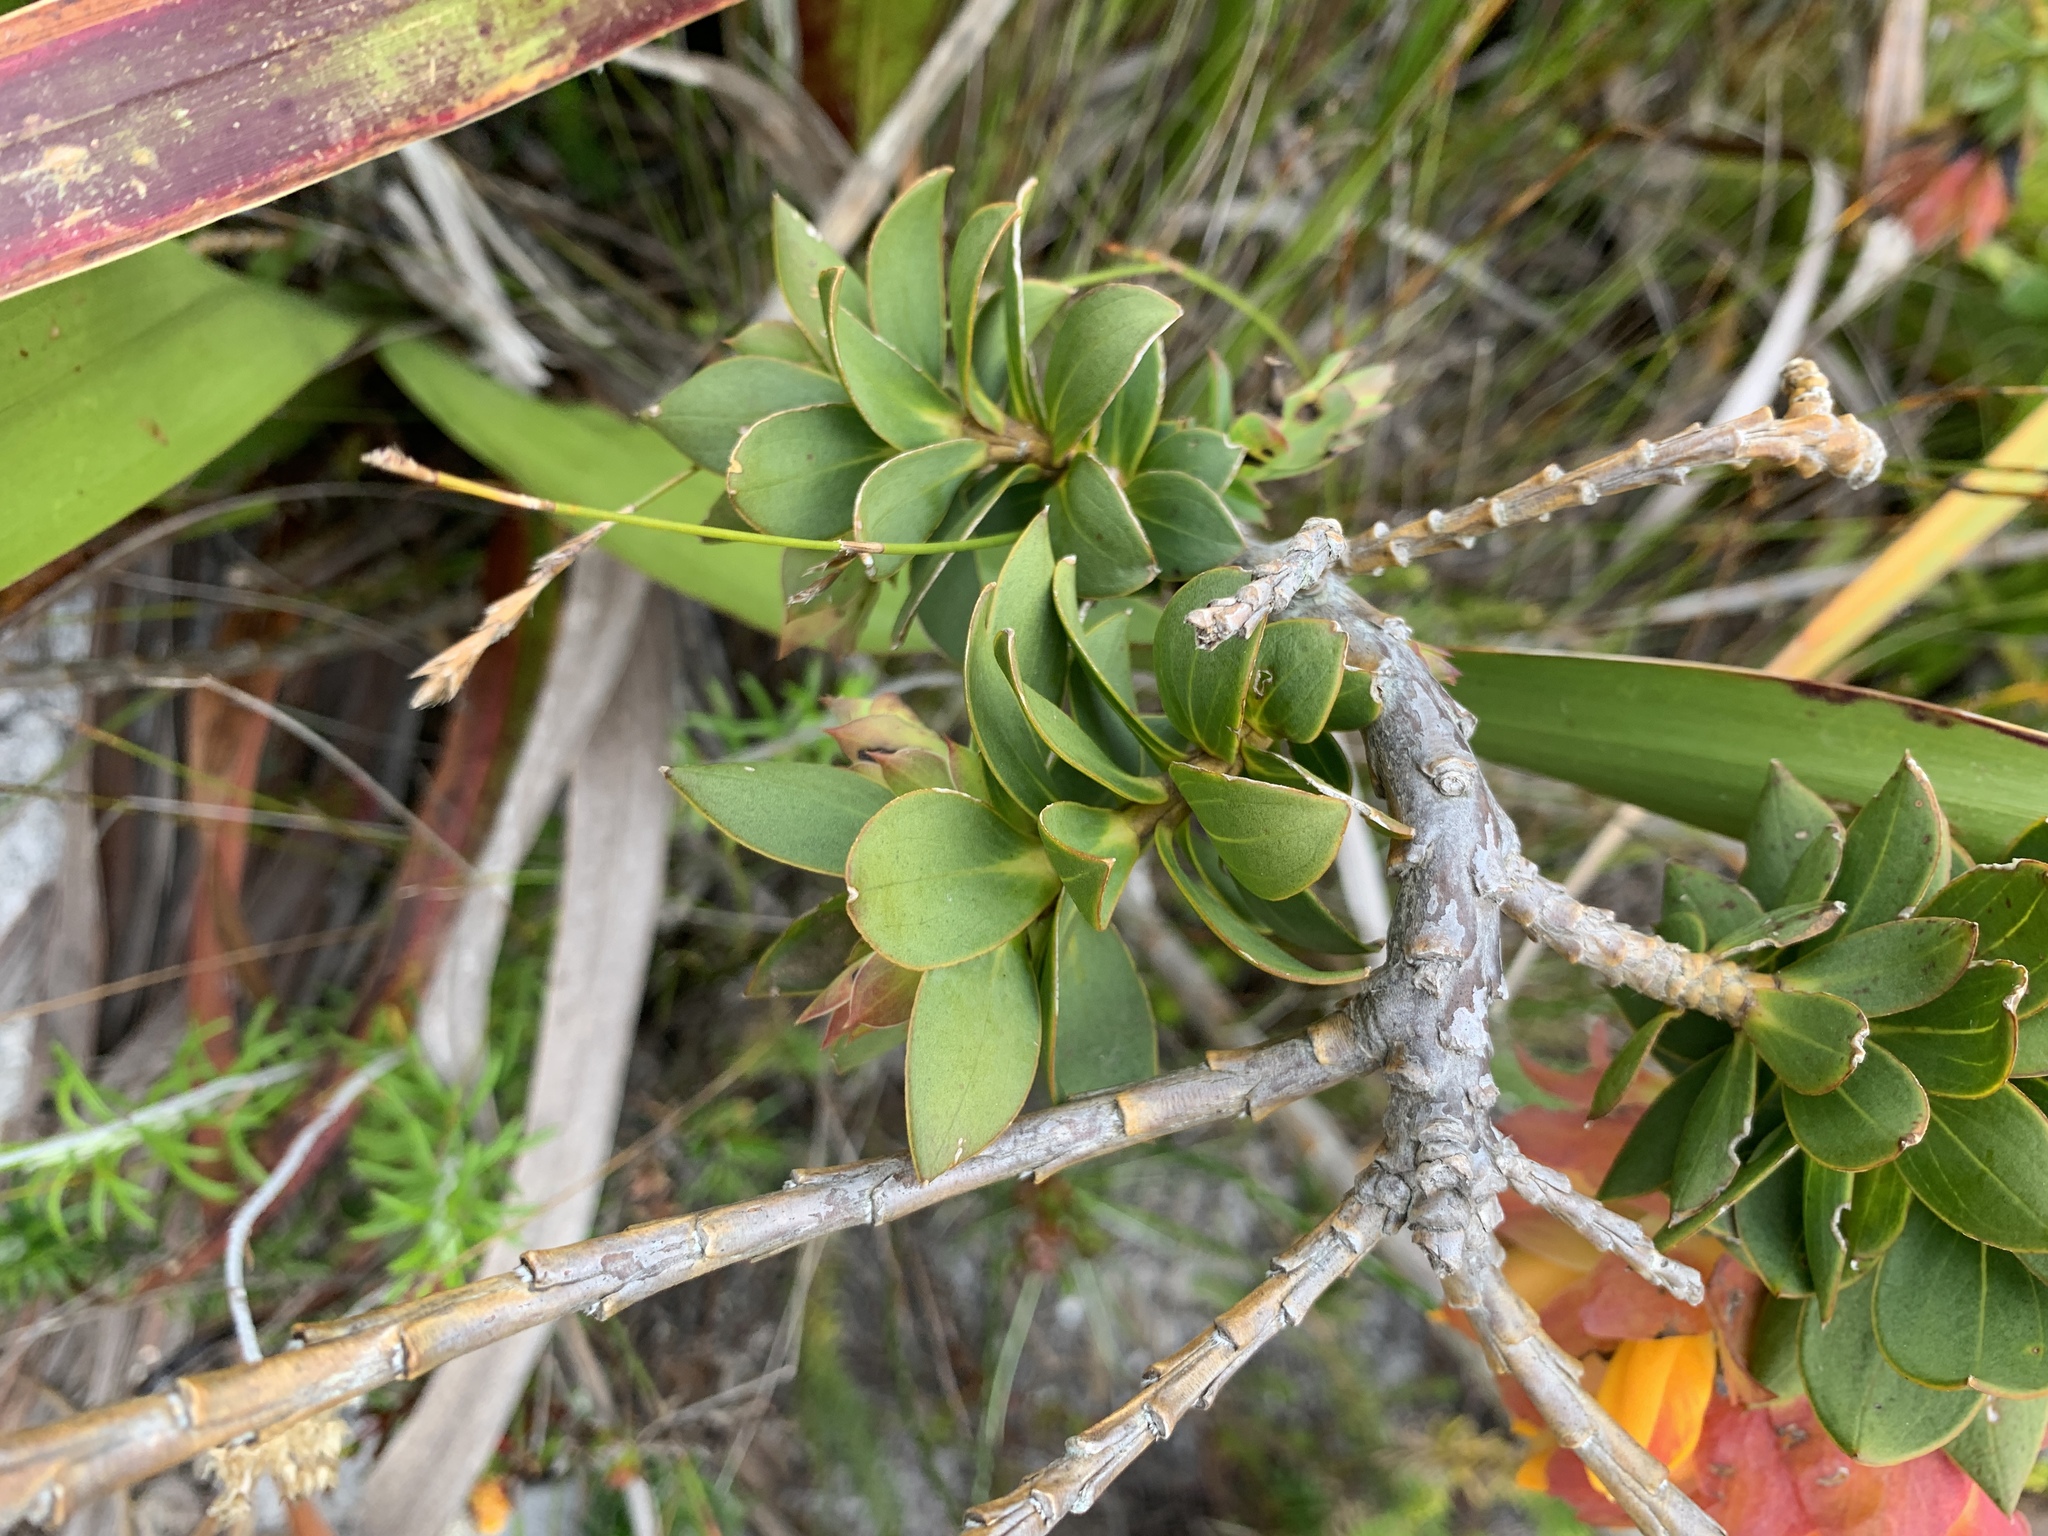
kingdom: Plantae
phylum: Tracheophyta
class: Magnoliopsida
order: Fabales
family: Fabaceae
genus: Liparia
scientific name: Liparia splendens
